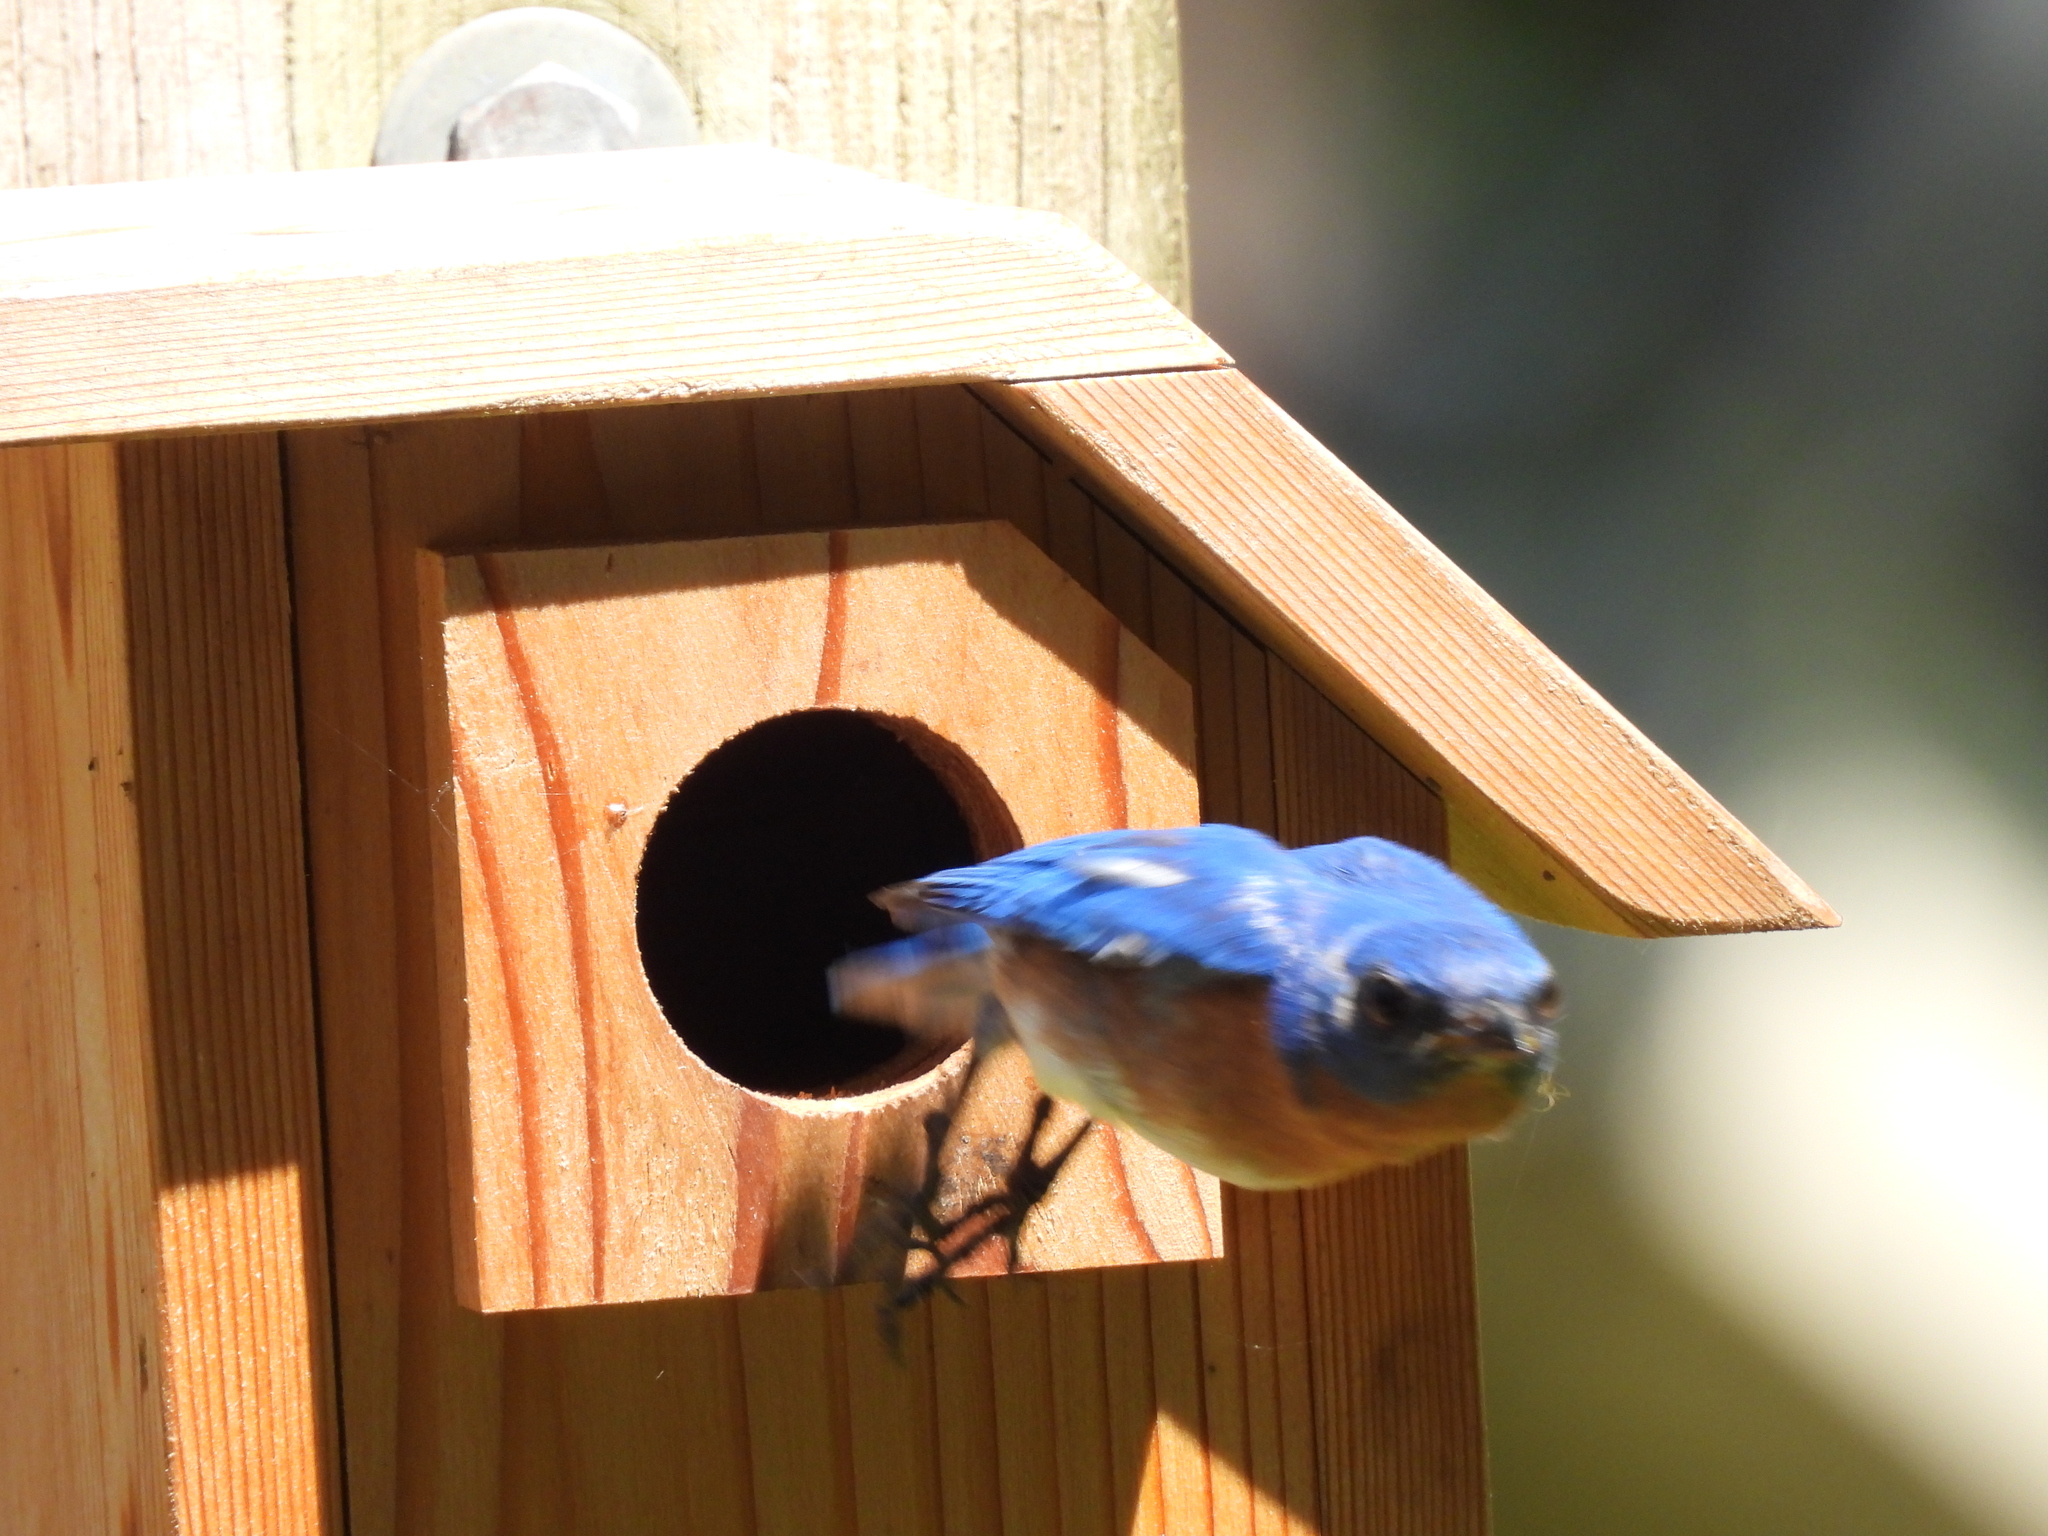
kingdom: Animalia
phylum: Chordata
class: Aves
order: Passeriformes
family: Turdidae
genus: Sialia
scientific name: Sialia sialis
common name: Eastern bluebird
